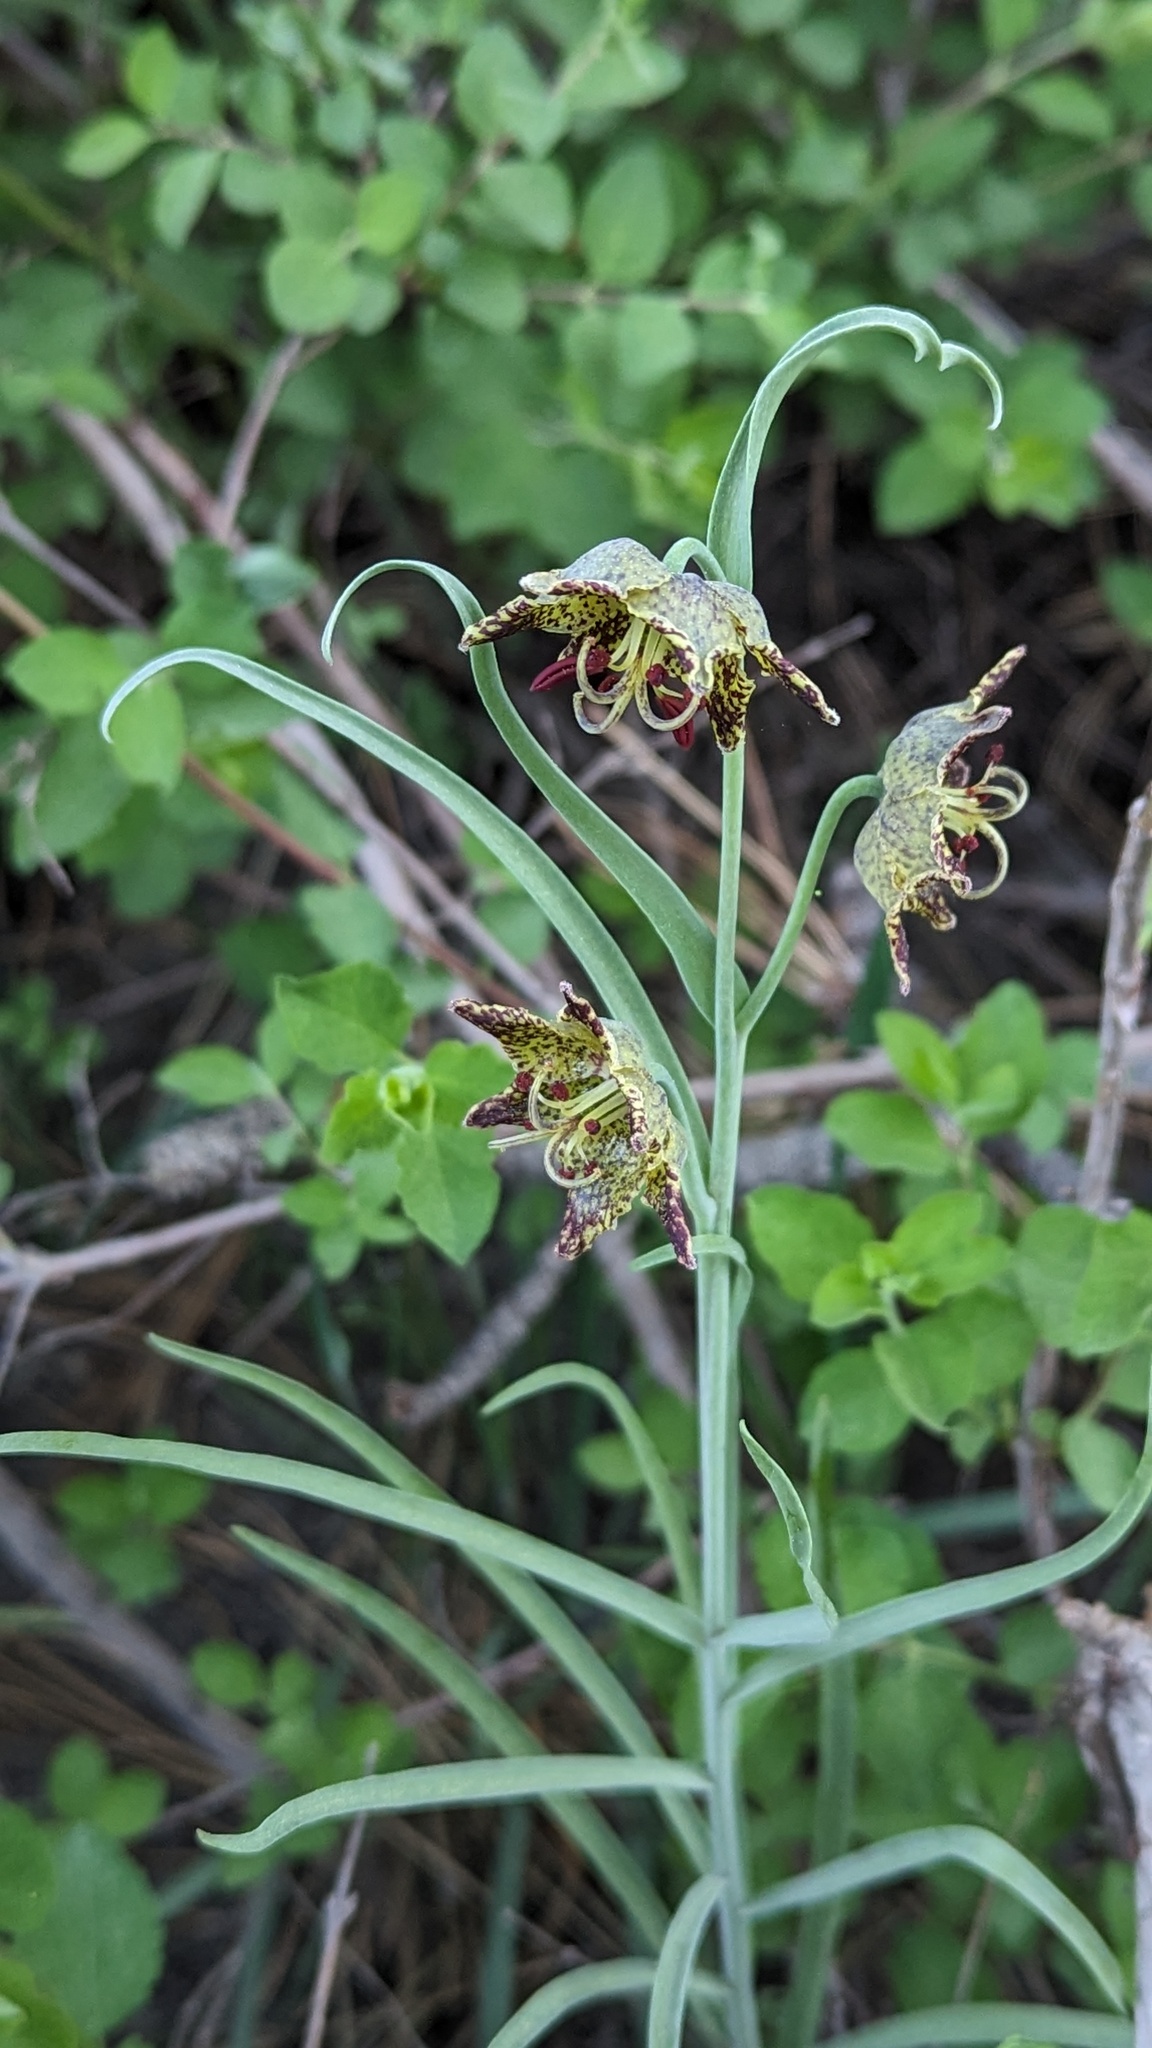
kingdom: Plantae
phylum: Tracheophyta
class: Liliopsida
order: Liliales
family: Liliaceae
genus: Fritillaria
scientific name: Fritillaria pinetorum
